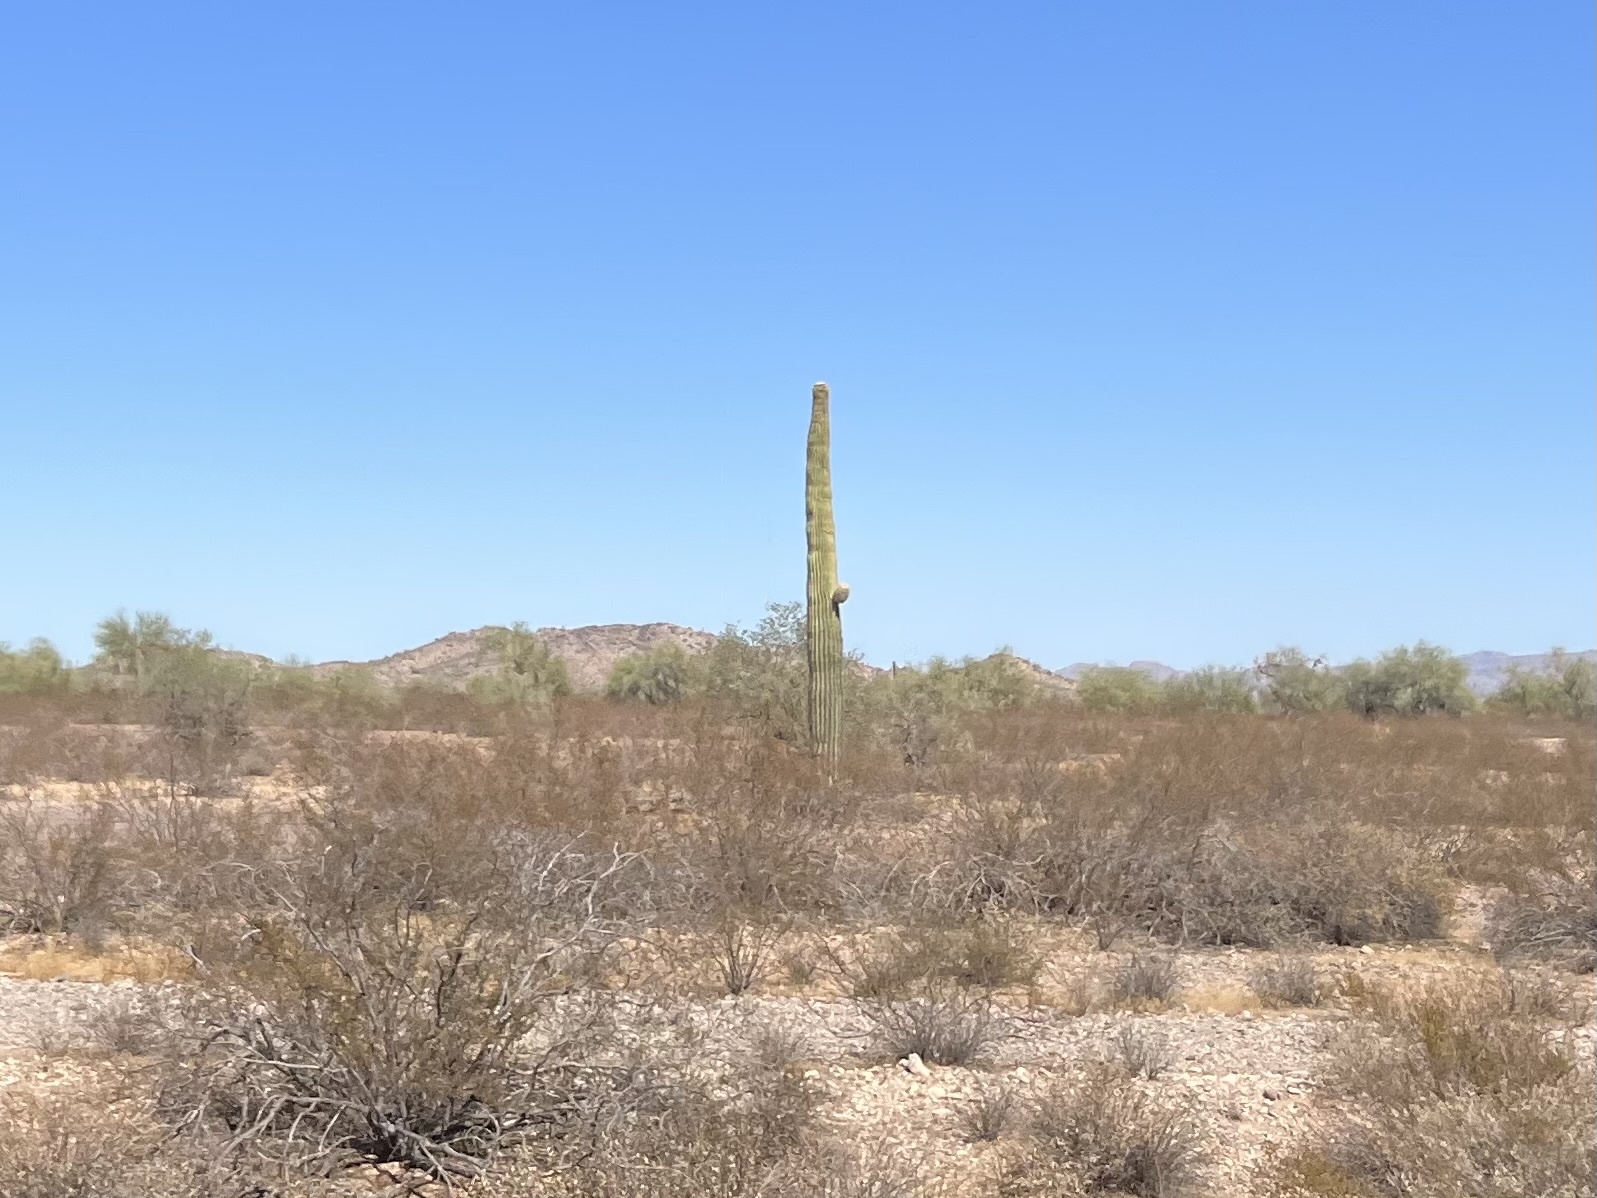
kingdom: Plantae
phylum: Tracheophyta
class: Magnoliopsida
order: Caryophyllales
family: Cactaceae
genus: Carnegiea
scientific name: Carnegiea gigantea
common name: Saguaro
